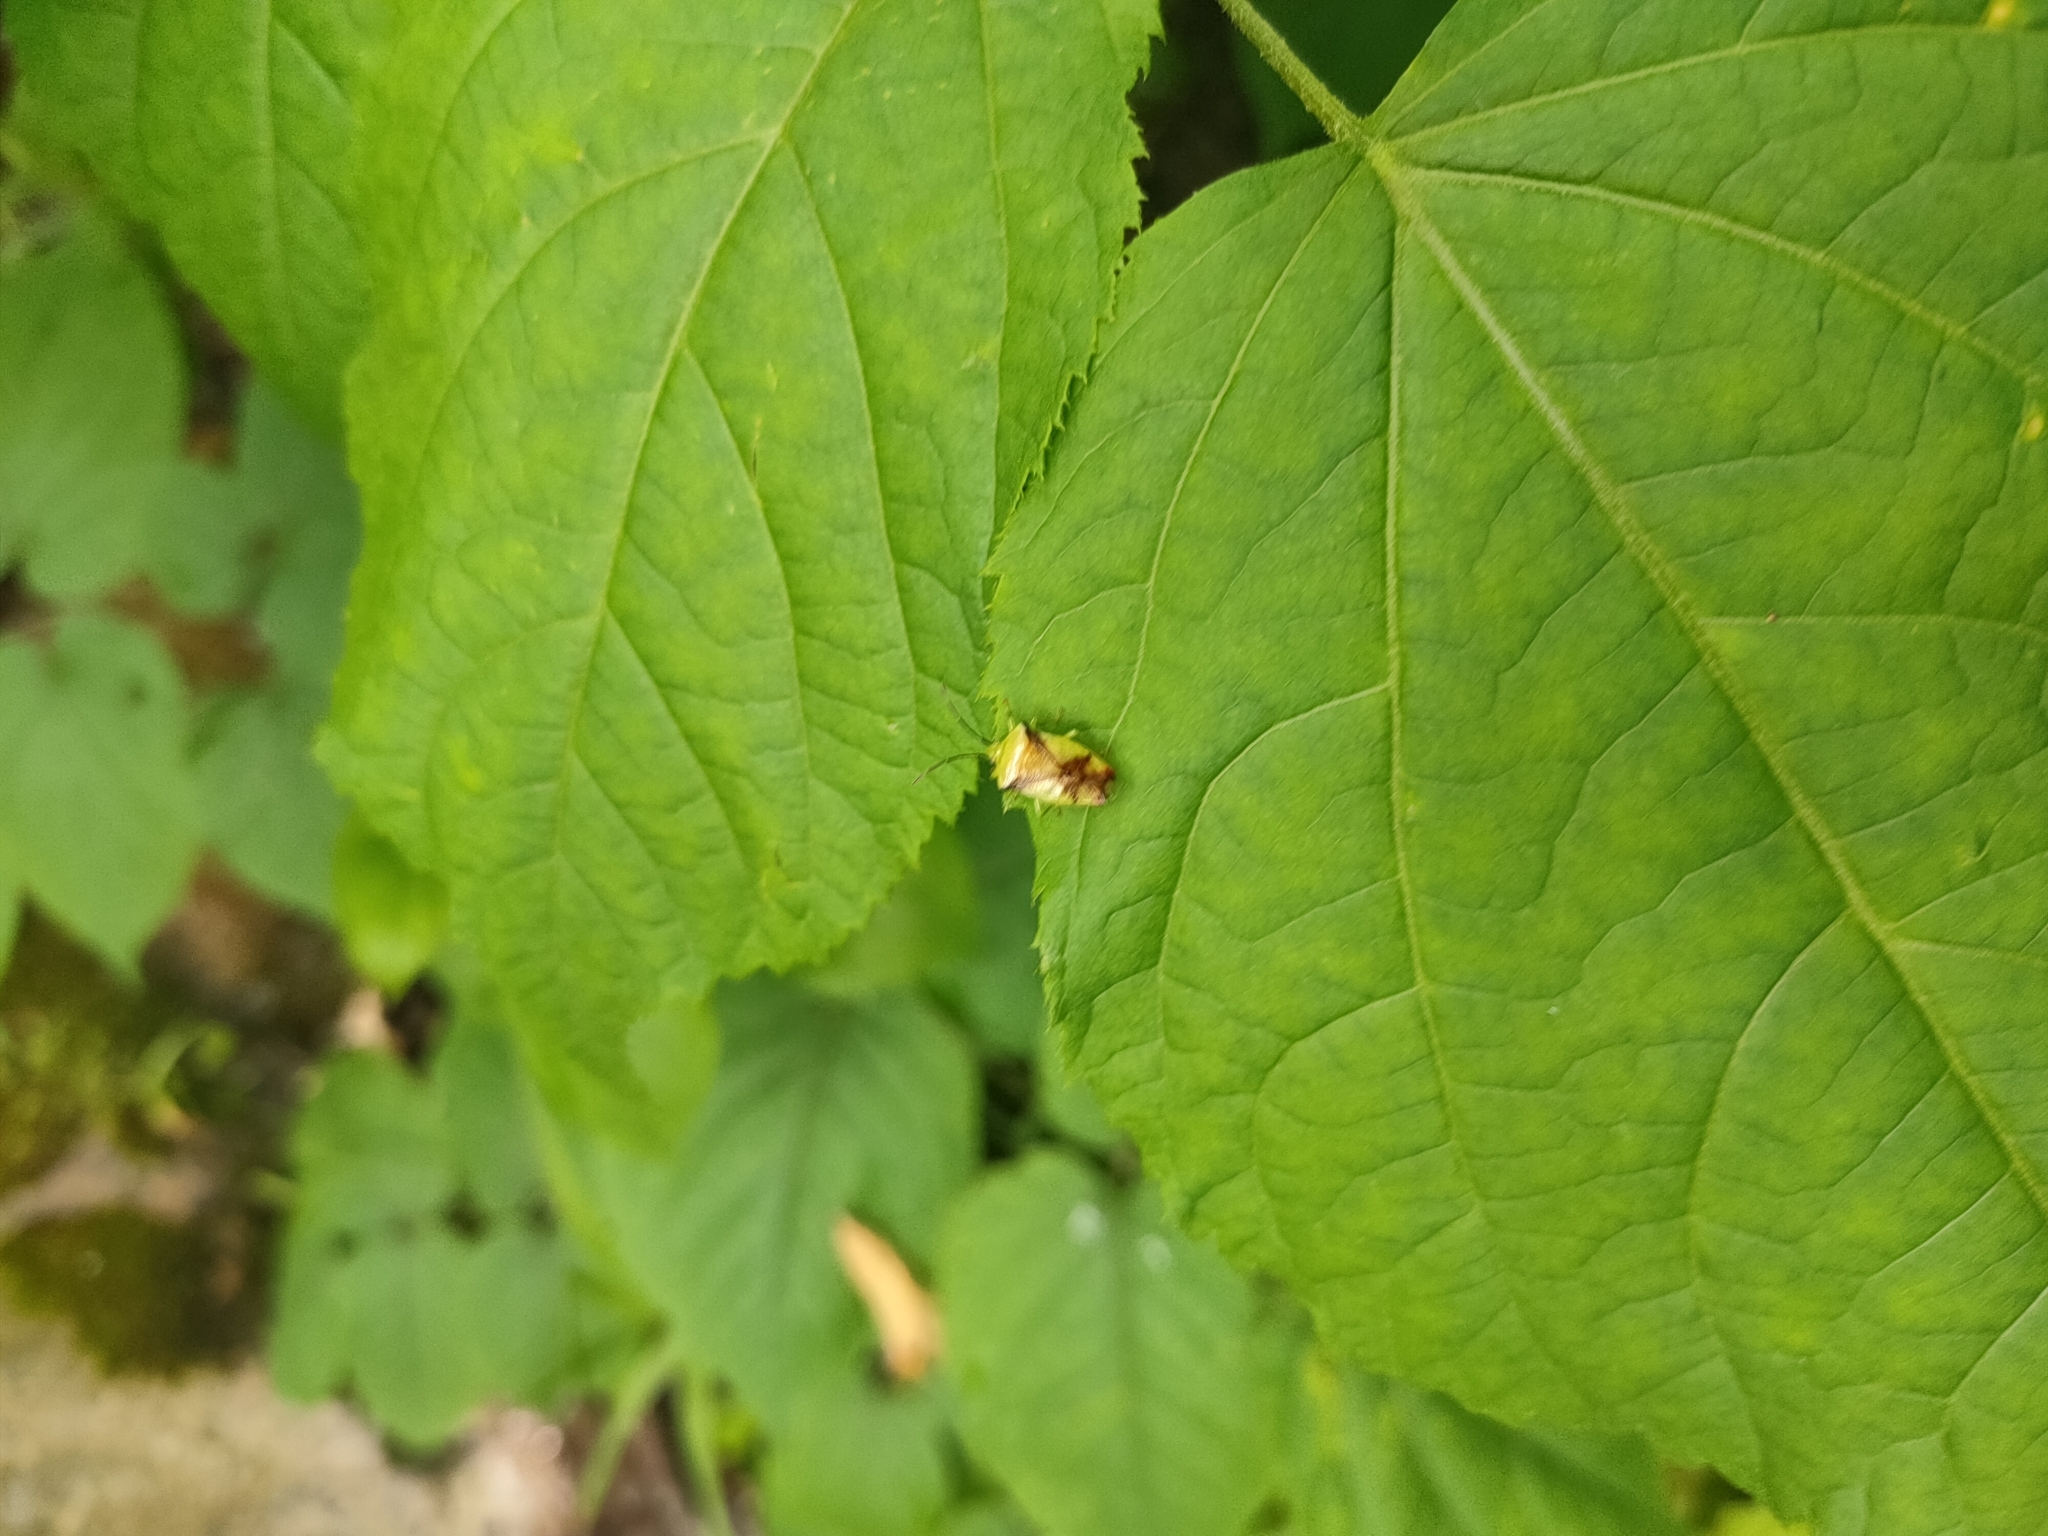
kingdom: Animalia
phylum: Arthropoda
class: Insecta
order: Hemiptera
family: Acanthosomatidae
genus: Elasmostethus
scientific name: Elasmostethus atricornis
